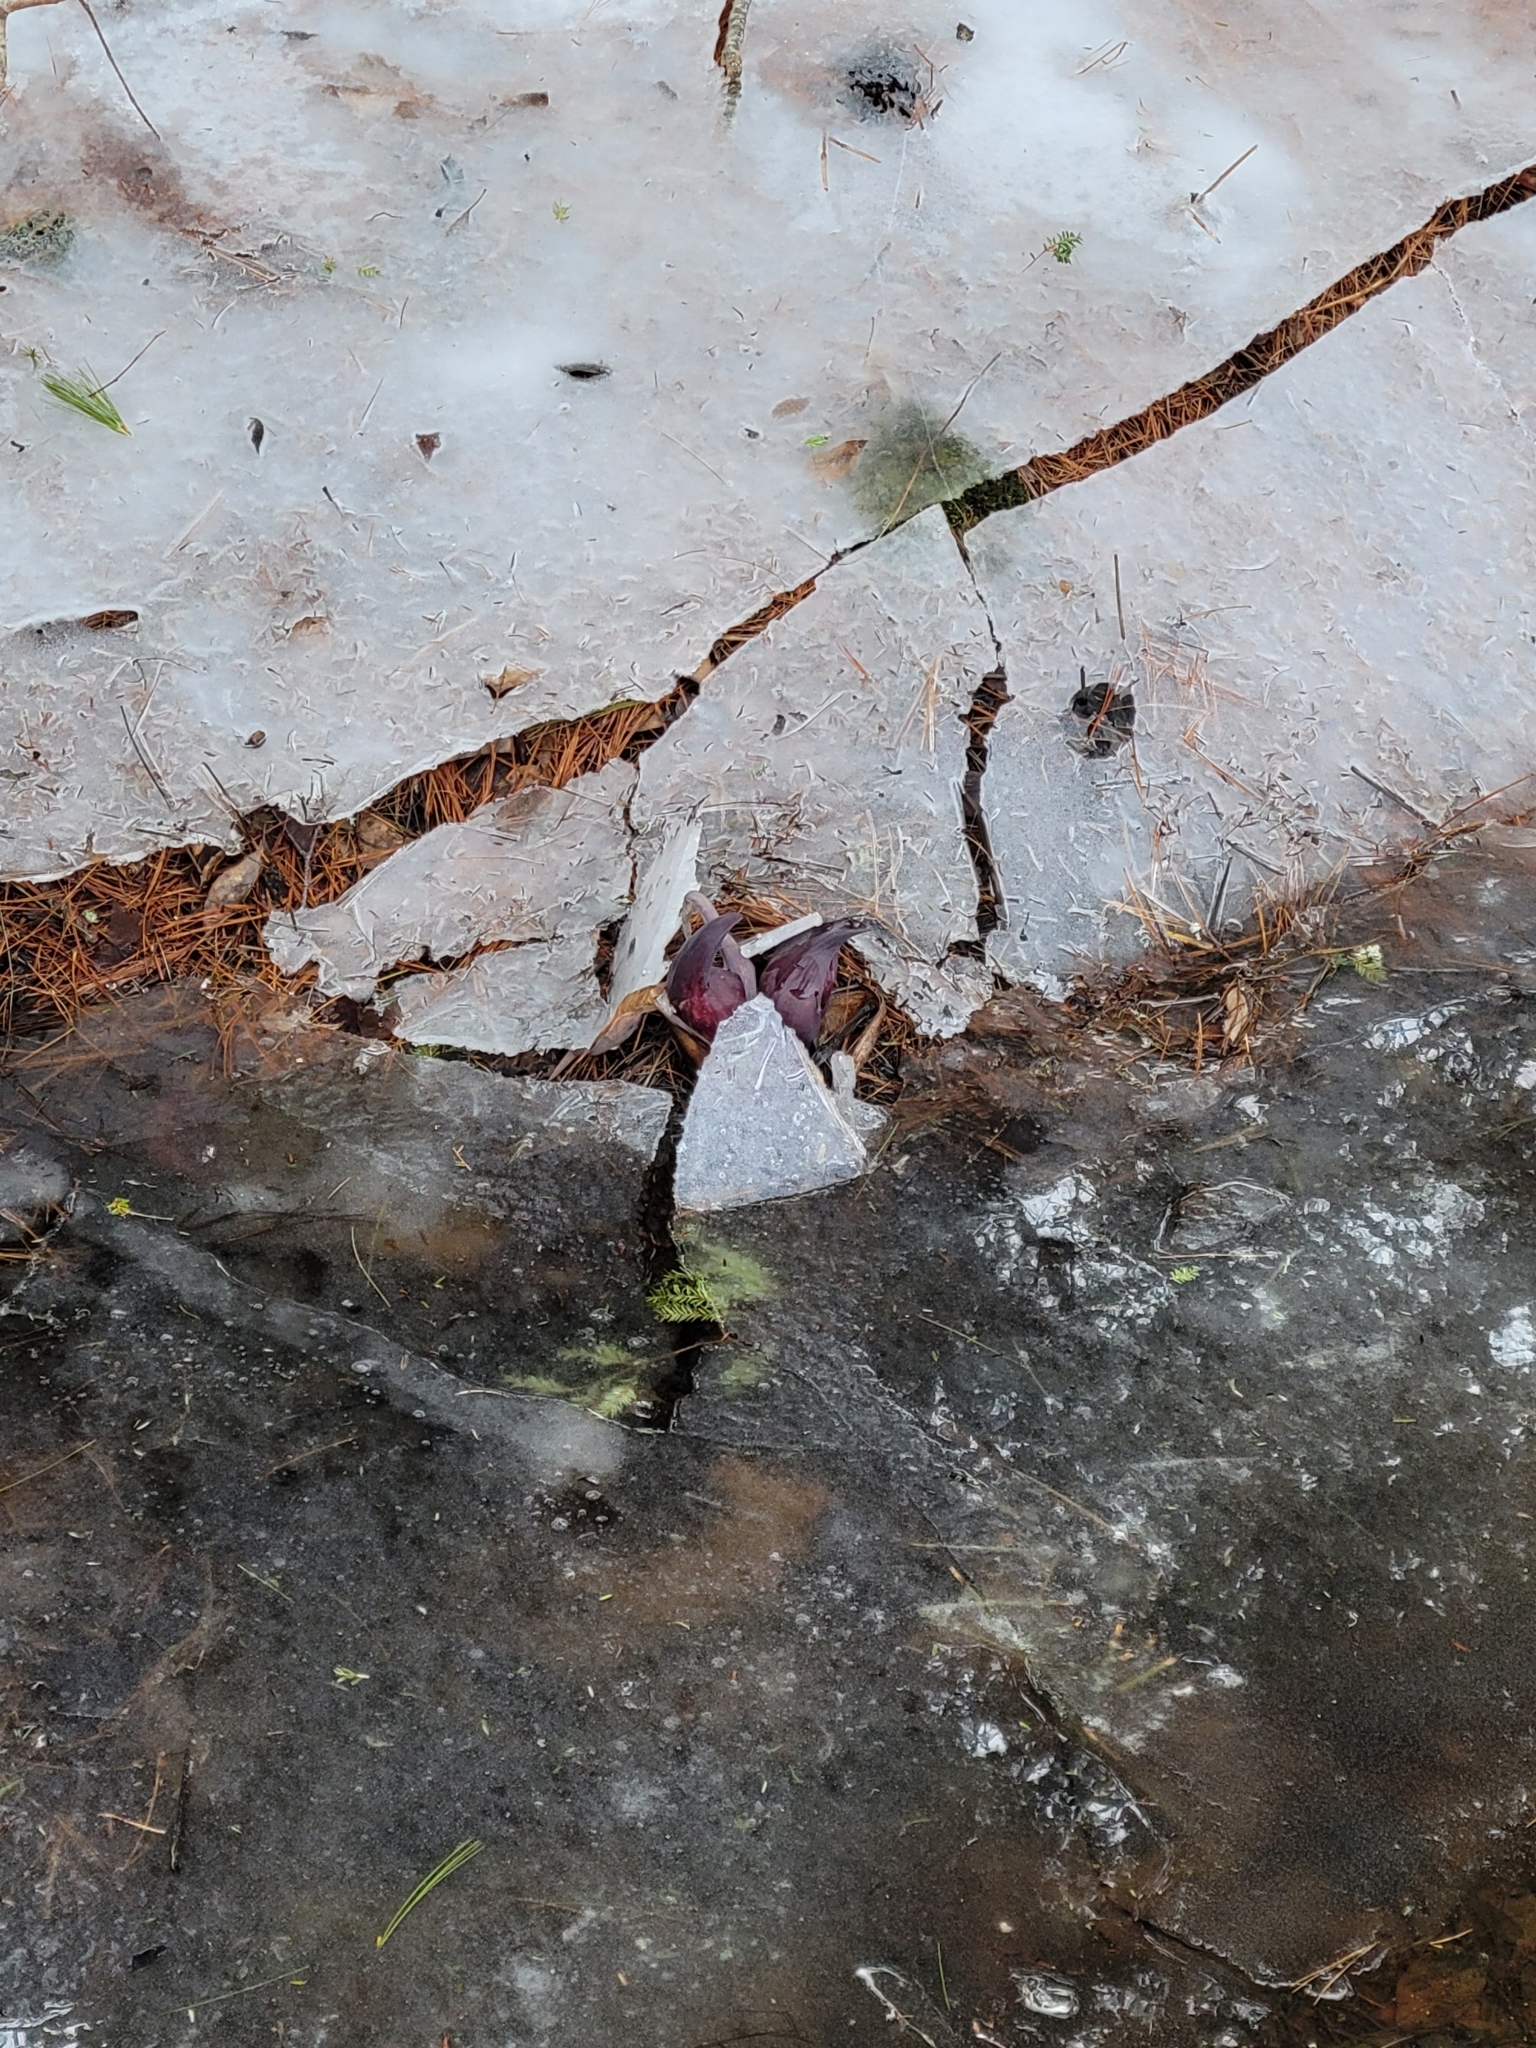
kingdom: Plantae
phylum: Tracheophyta
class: Liliopsida
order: Alismatales
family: Araceae
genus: Symplocarpus
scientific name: Symplocarpus foetidus
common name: Eastern skunk cabbage
